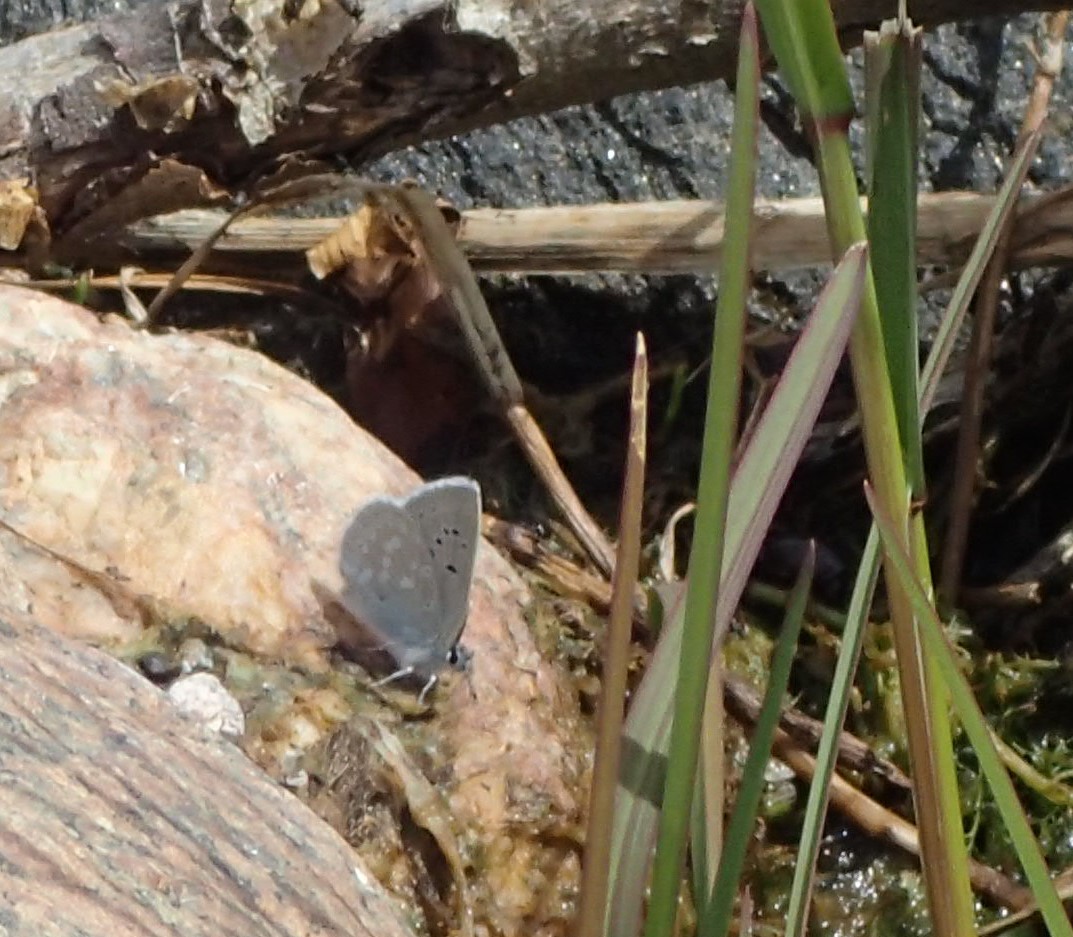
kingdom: Animalia
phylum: Arthropoda
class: Insecta
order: Lepidoptera
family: Lycaenidae
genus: Icaricia
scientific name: Icaricia icarioides
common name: Boisduval's blue
